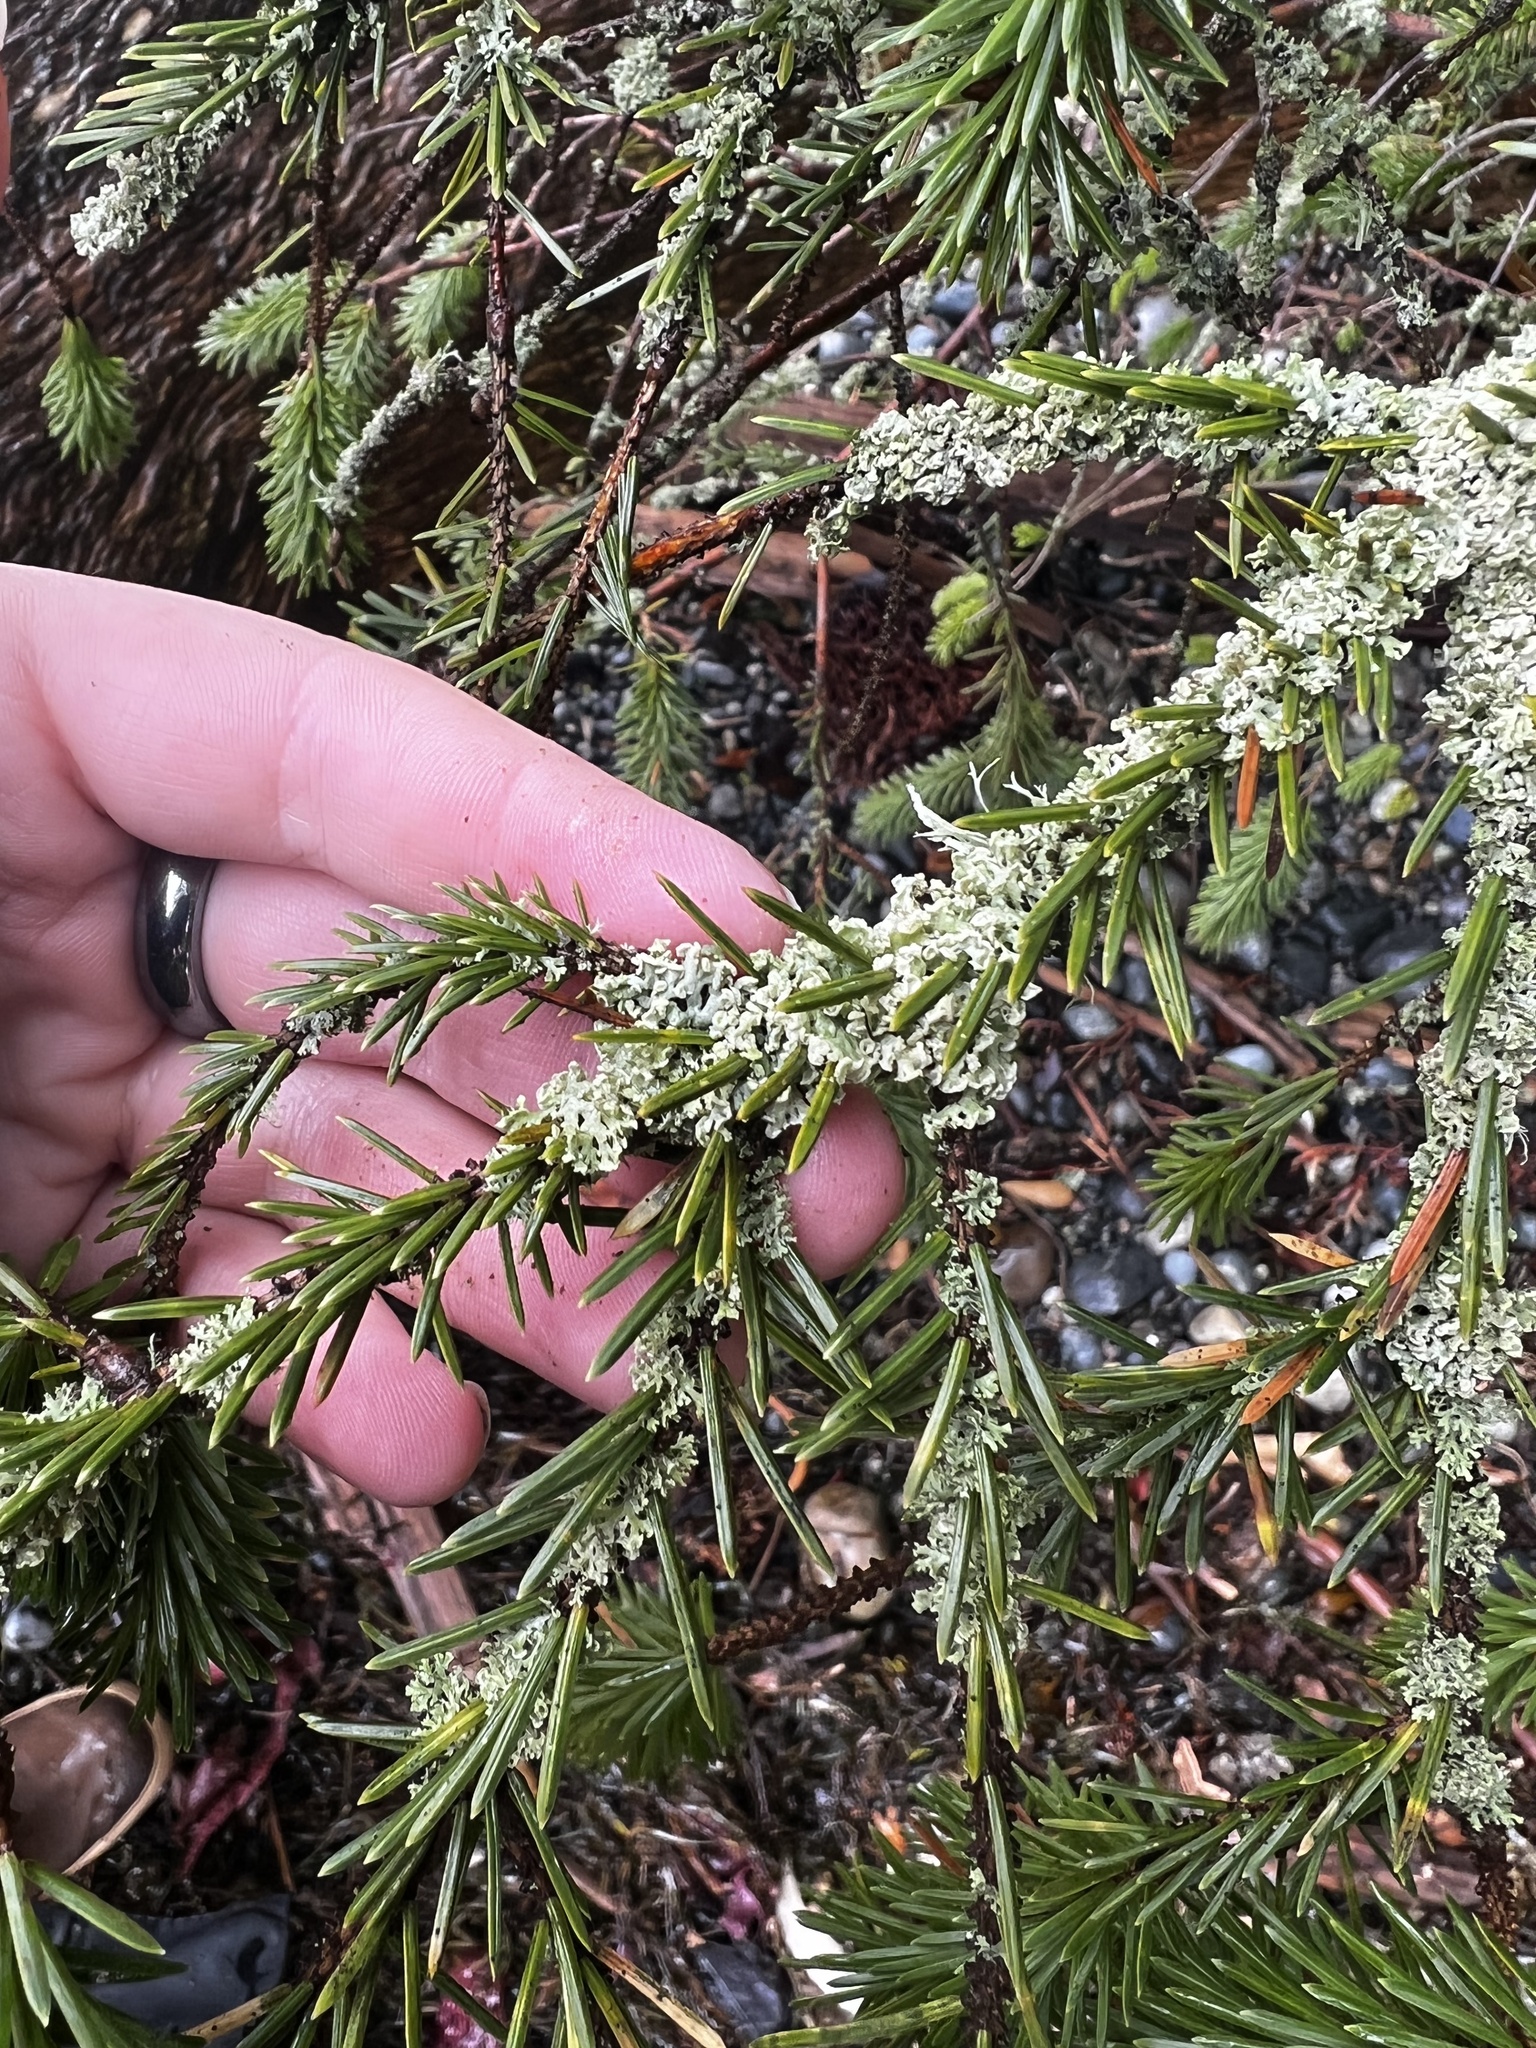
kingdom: Plantae
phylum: Tracheophyta
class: Pinopsida
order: Pinales
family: Pinaceae
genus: Picea
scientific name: Picea sitchensis
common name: Sitka spruce
